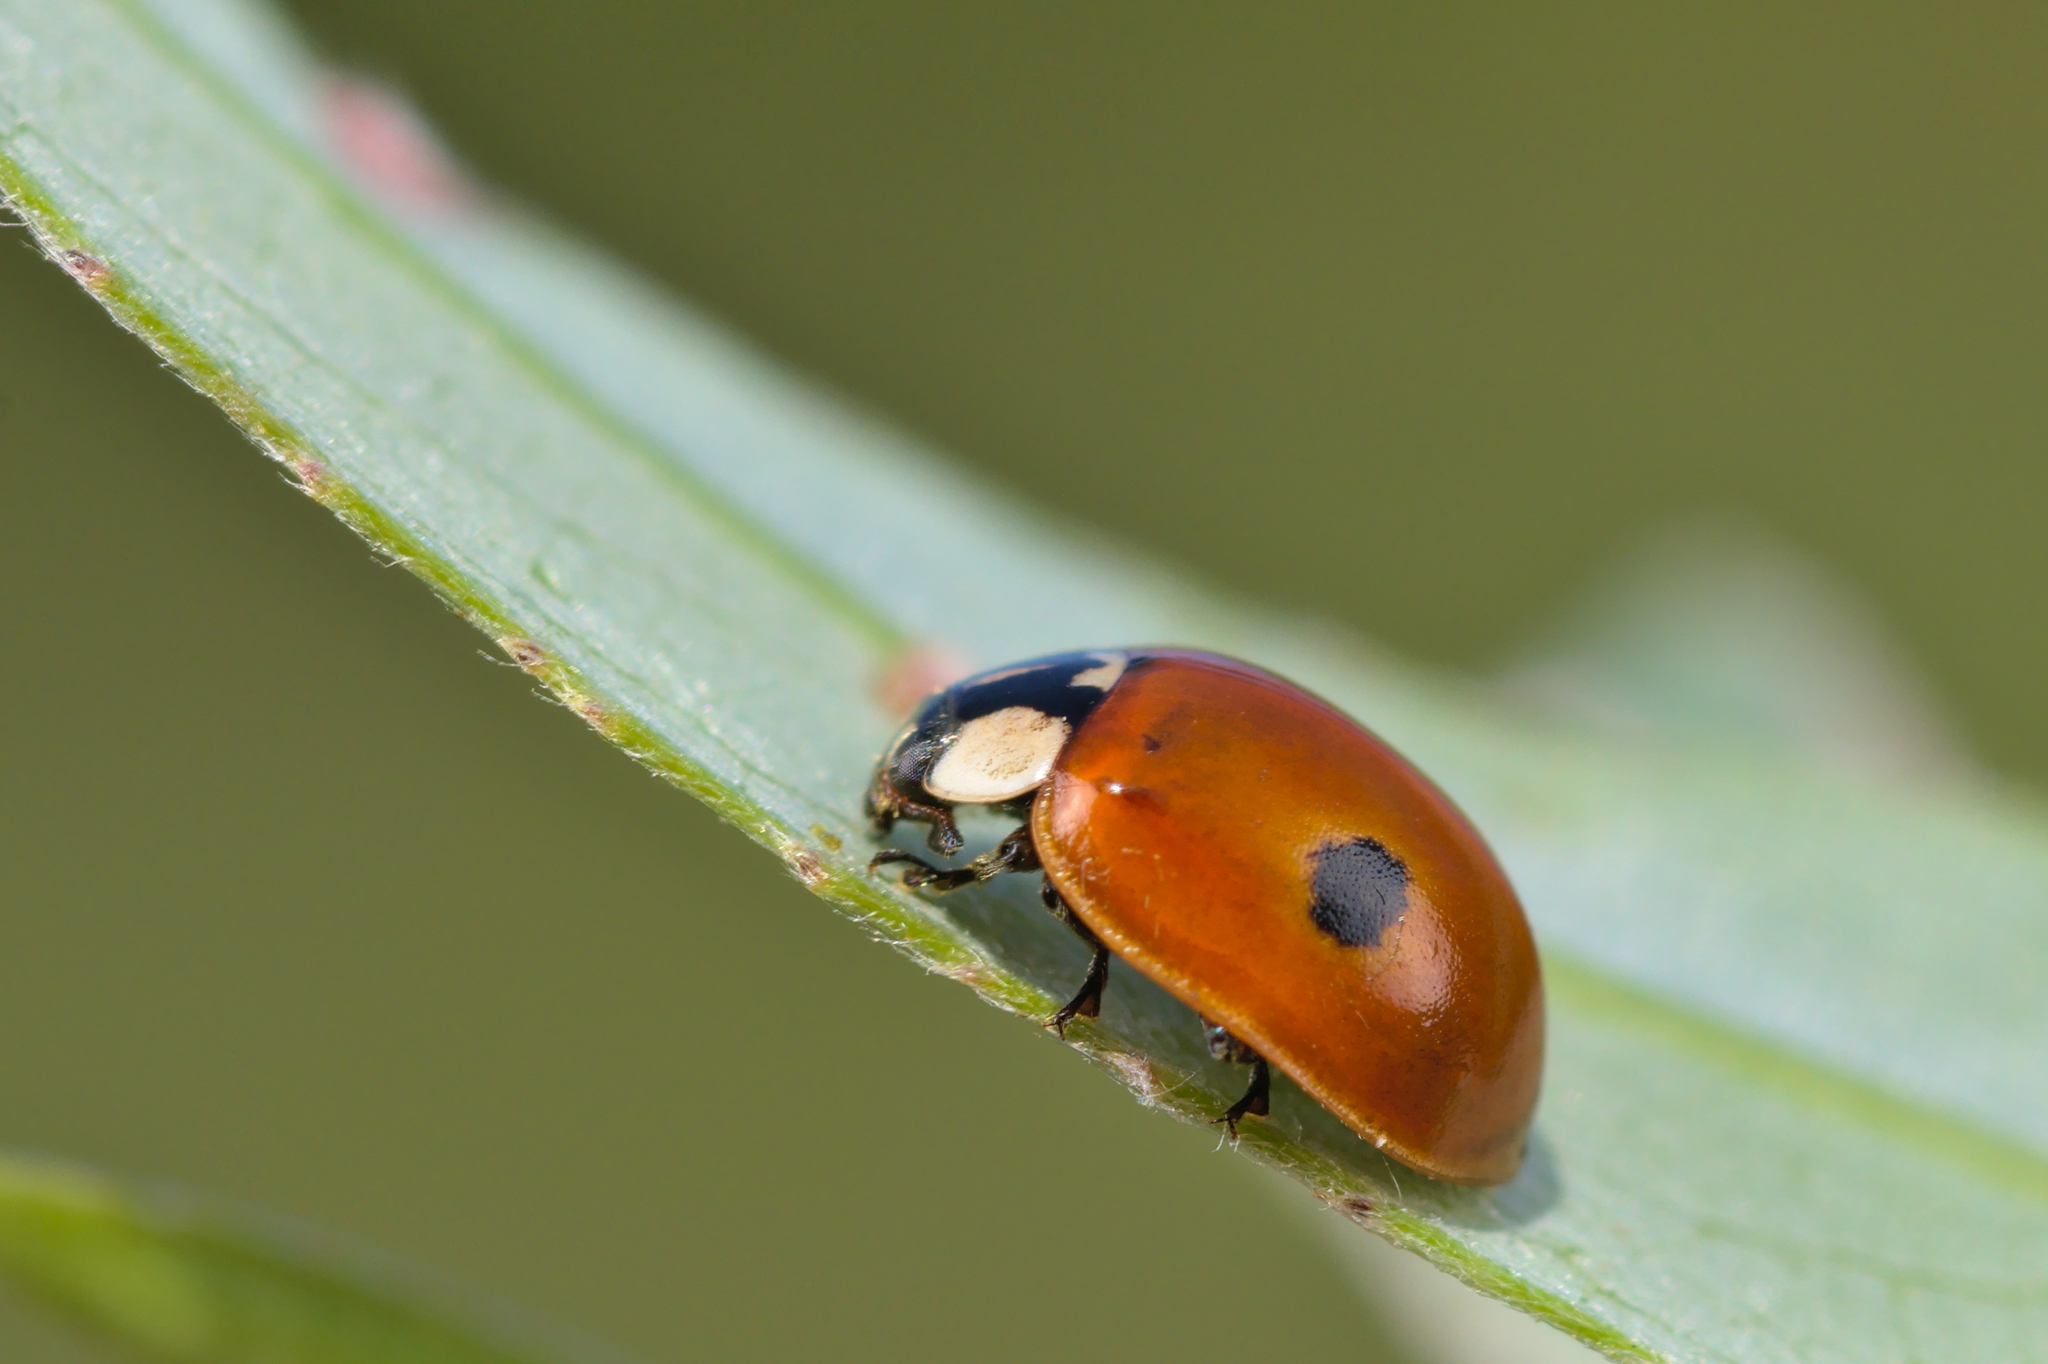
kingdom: Animalia
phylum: Arthropoda
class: Insecta
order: Coleoptera
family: Coccinellidae
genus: Adalia
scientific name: Adalia bipunctata
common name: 2-spot ladybird
